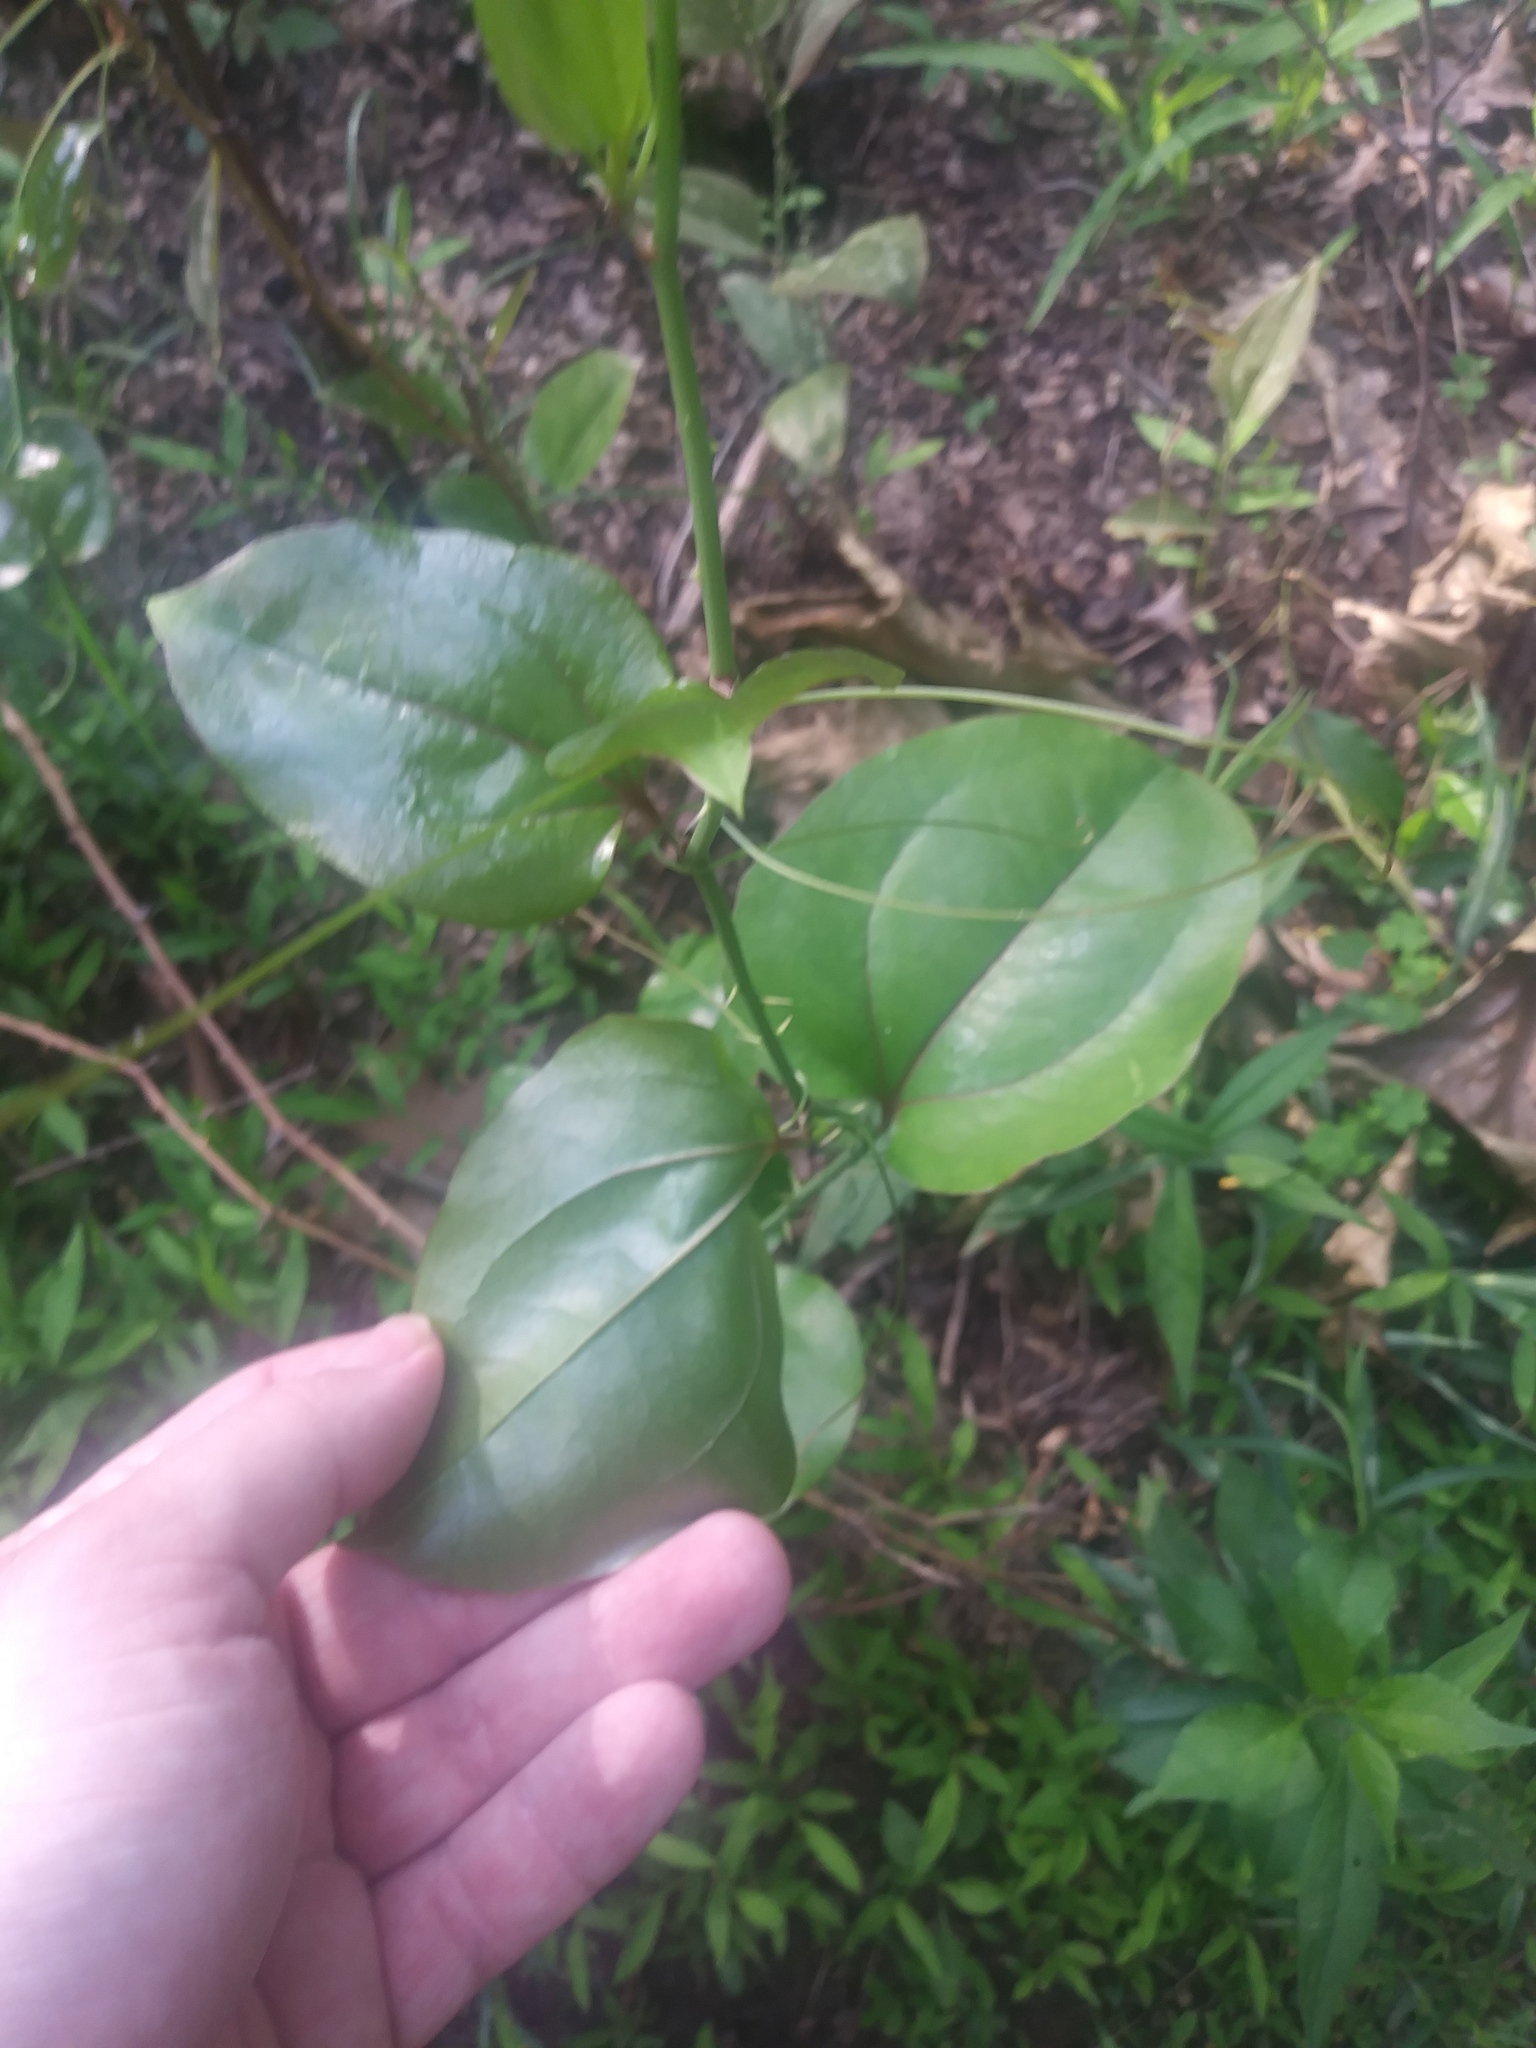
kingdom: Plantae
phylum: Tracheophyta
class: Liliopsida
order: Liliales
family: Smilacaceae
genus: Smilax
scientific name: Smilax rotundifolia
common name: Bullbriar
